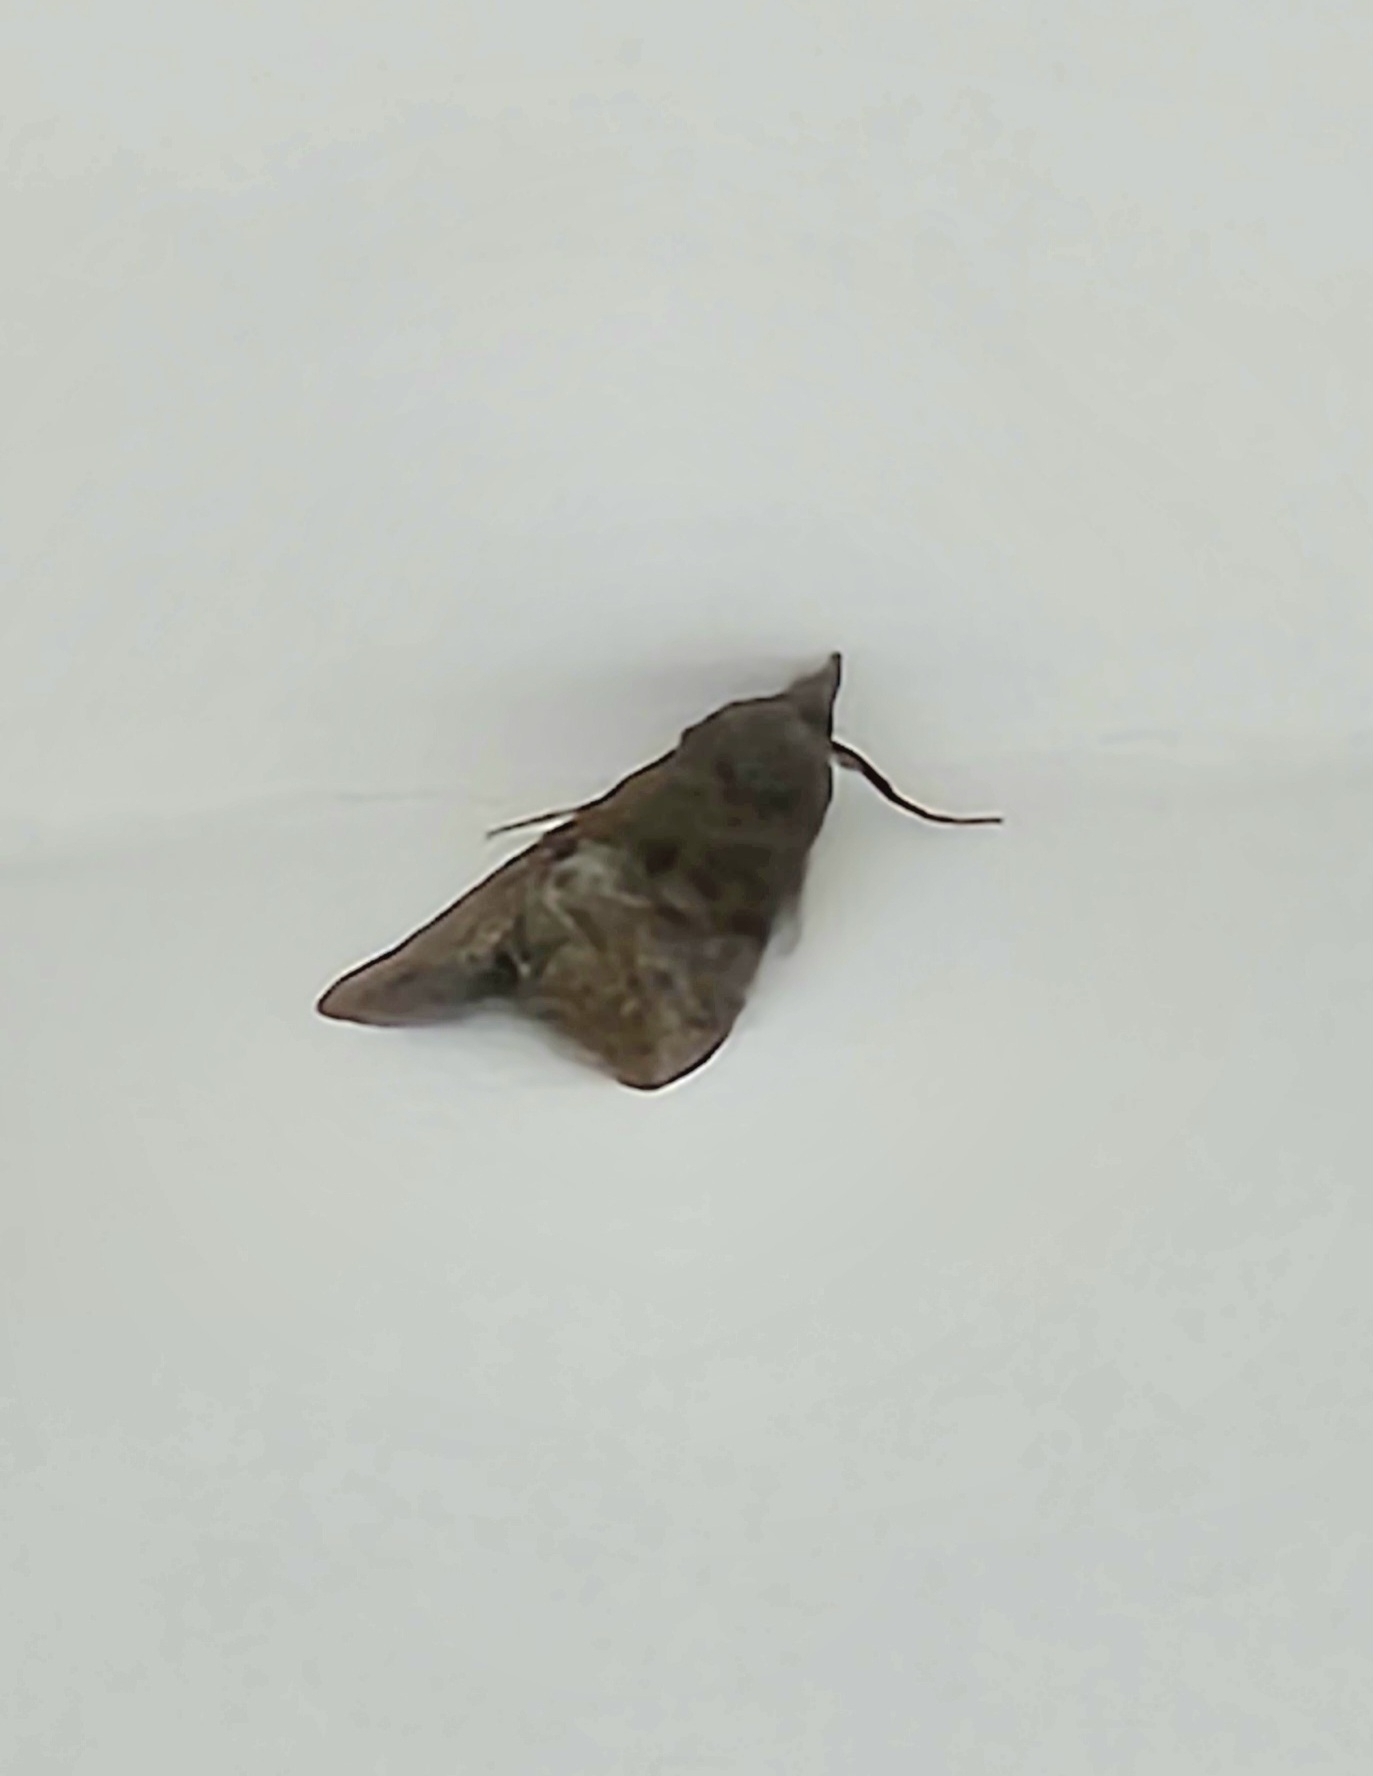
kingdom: Animalia
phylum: Arthropoda
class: Insecta
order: Lepidoptera
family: Erebidae
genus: Hypena
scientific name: Hypena scabra
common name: Green cloverworm
